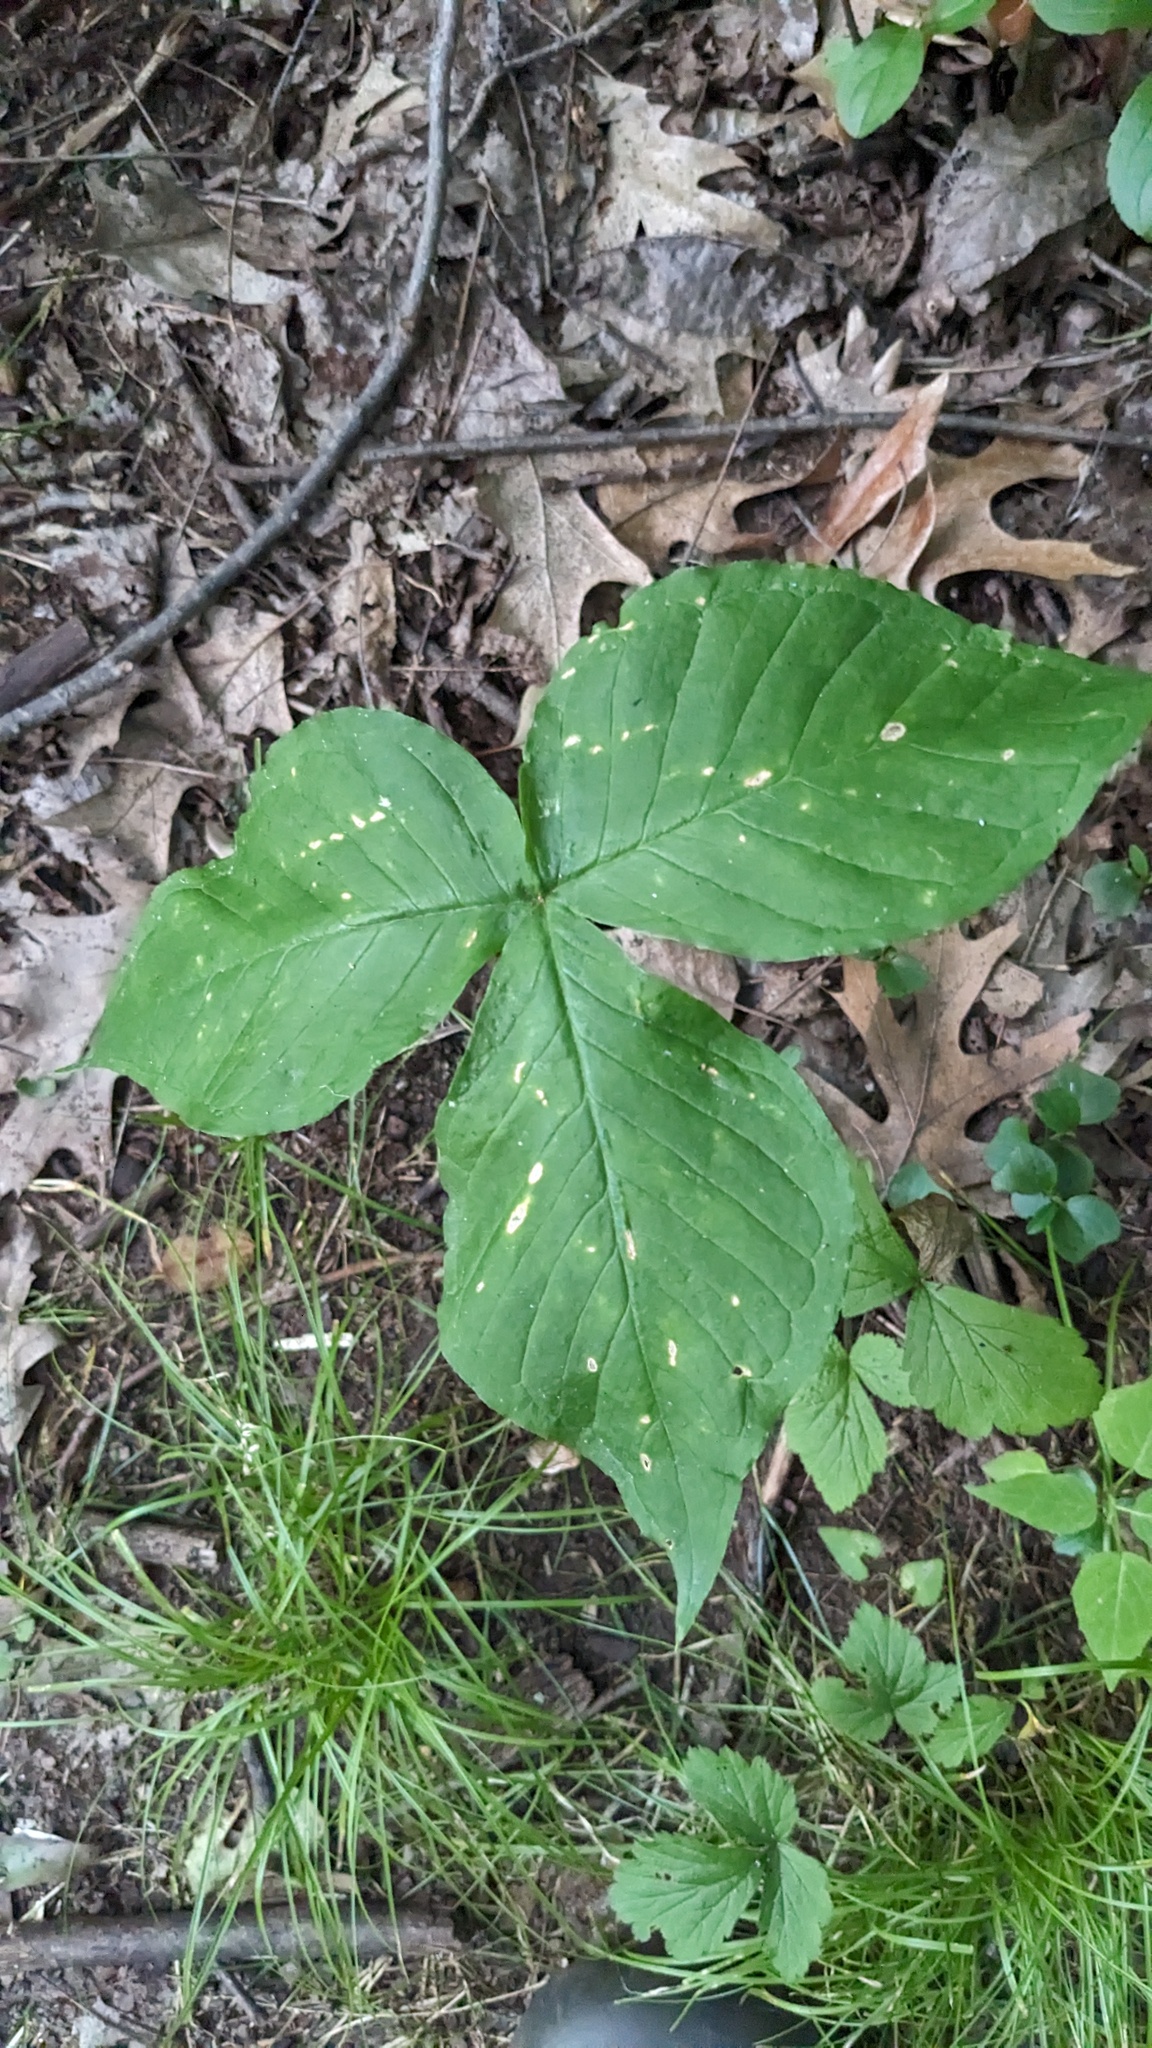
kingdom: Plantae
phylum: Tracheophyta
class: Liliopsida
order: Alismatales
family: Araceae
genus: Arisaema
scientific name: Arisaema triphyllum
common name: Jack-in-the-pulpit
